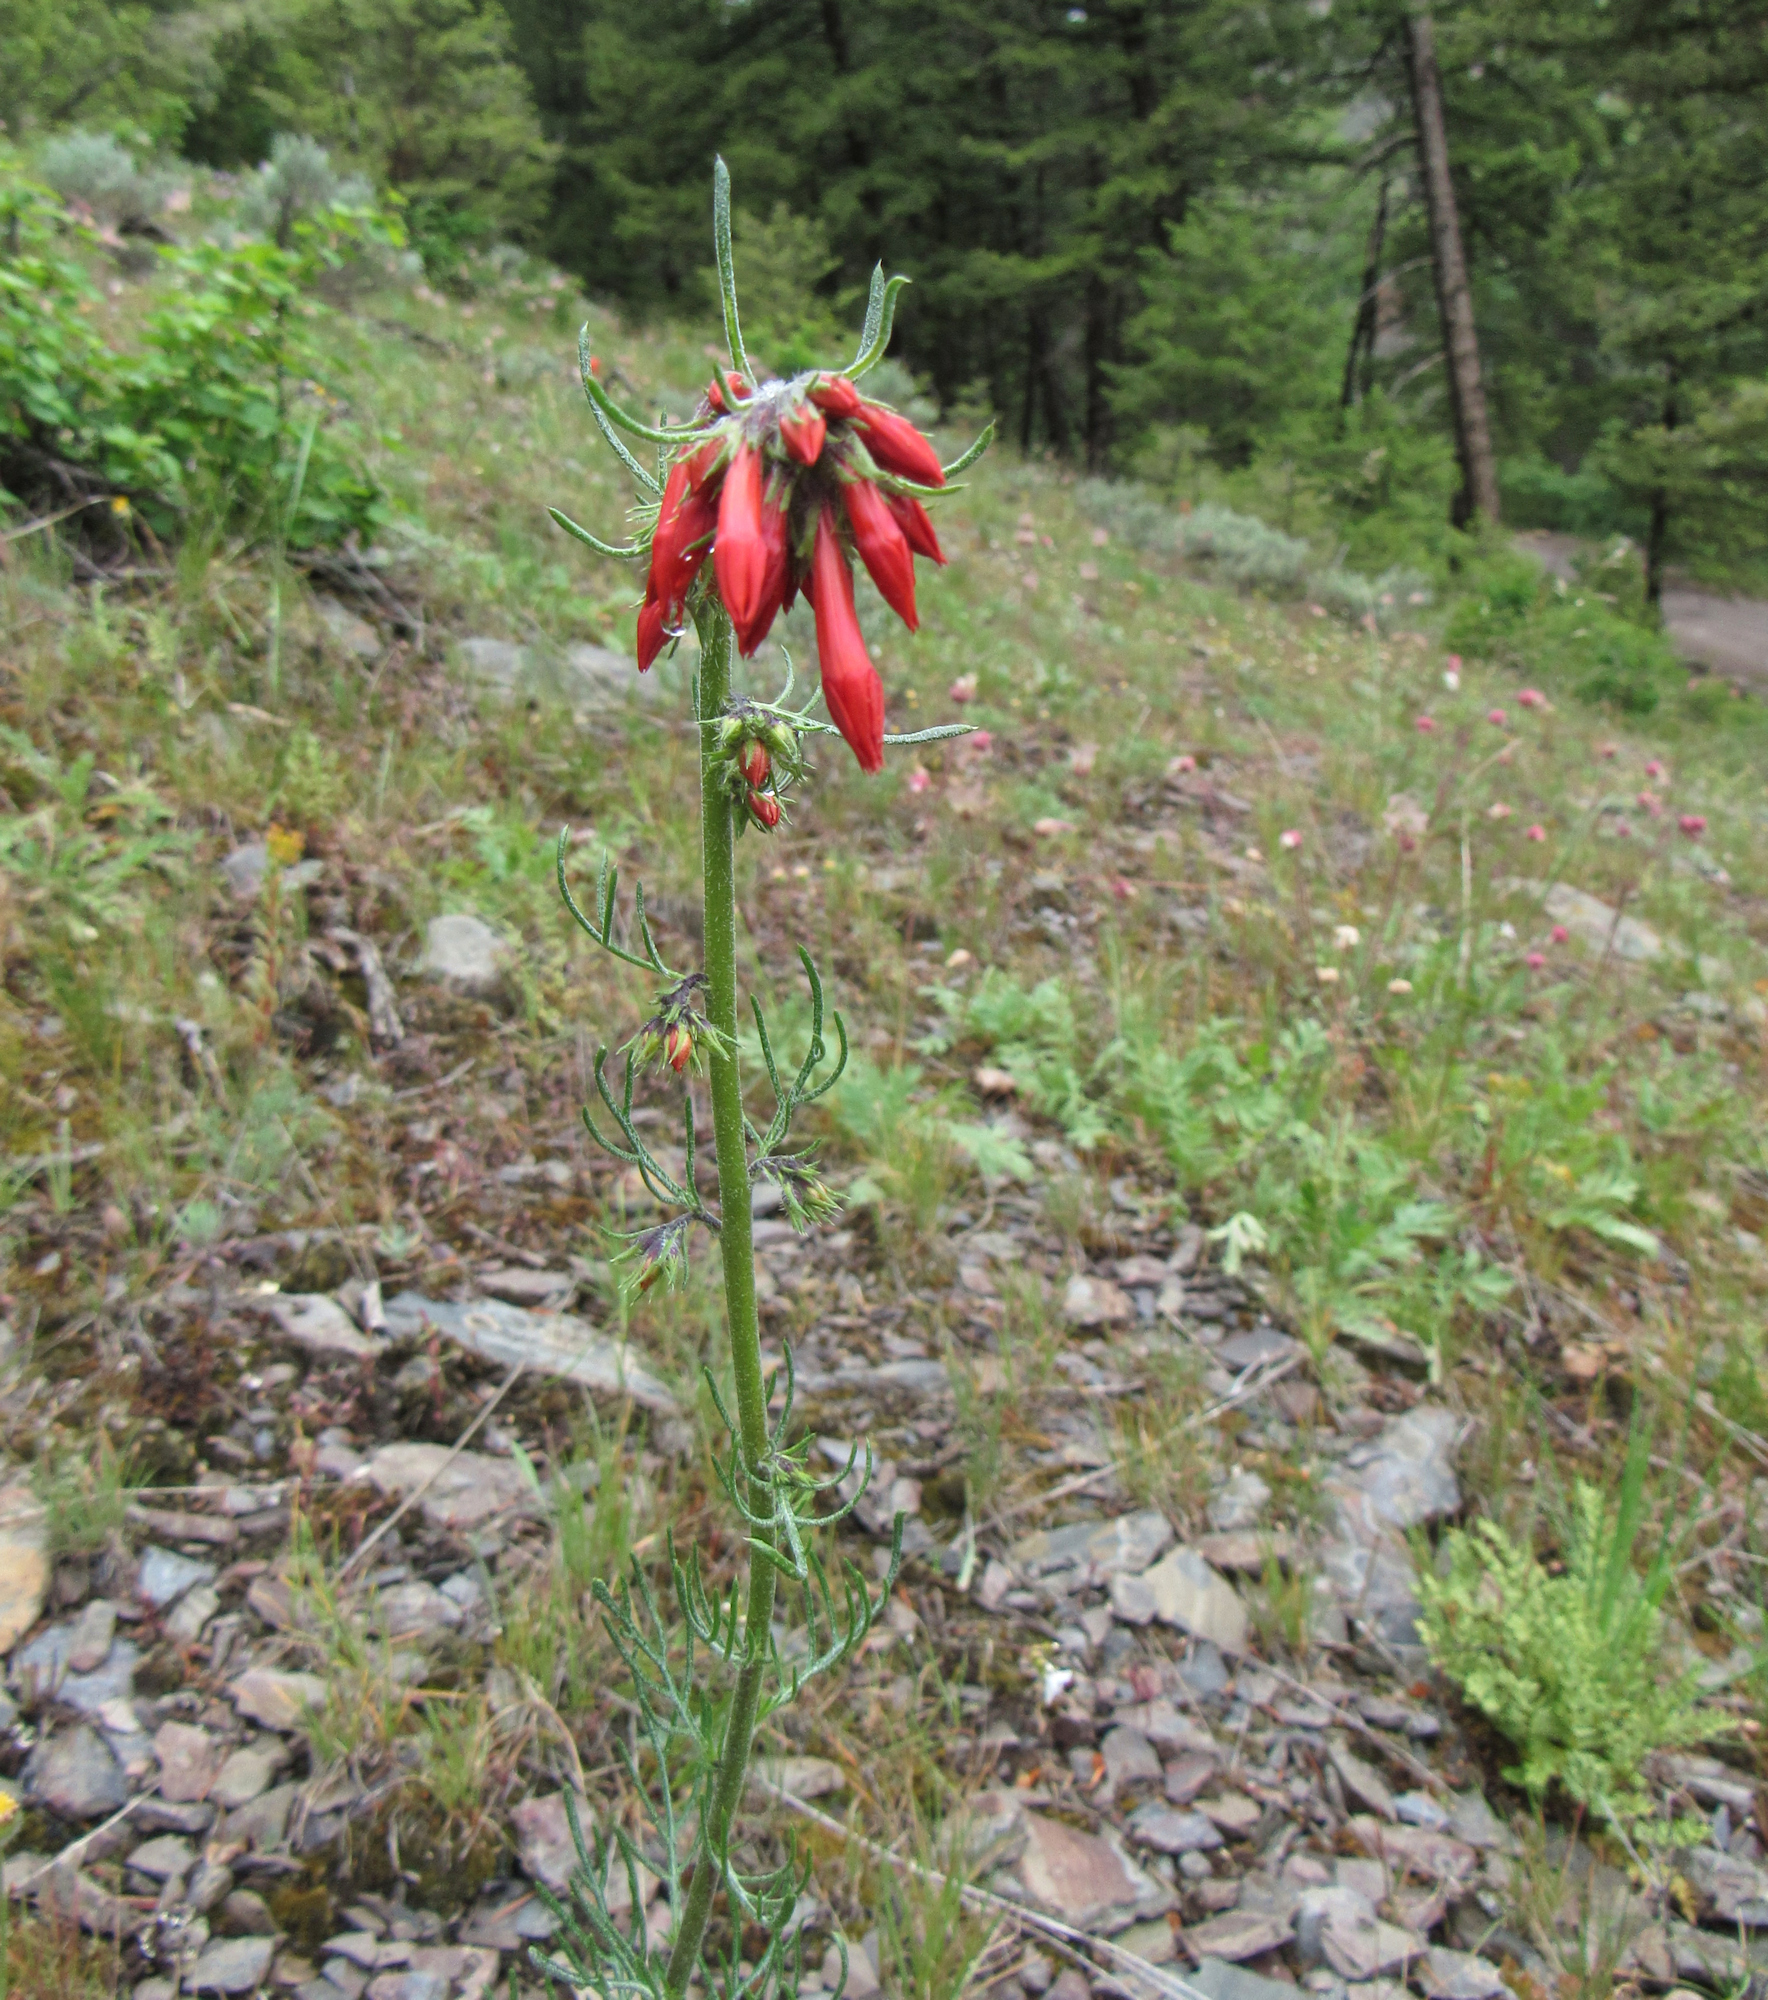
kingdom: Plantae
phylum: Tracheophyta
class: Magnoliopsida
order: Ericales
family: Polemoniaceae
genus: Ipomopsis
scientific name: Ipomopsis aggregata
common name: Scarlet gilia
